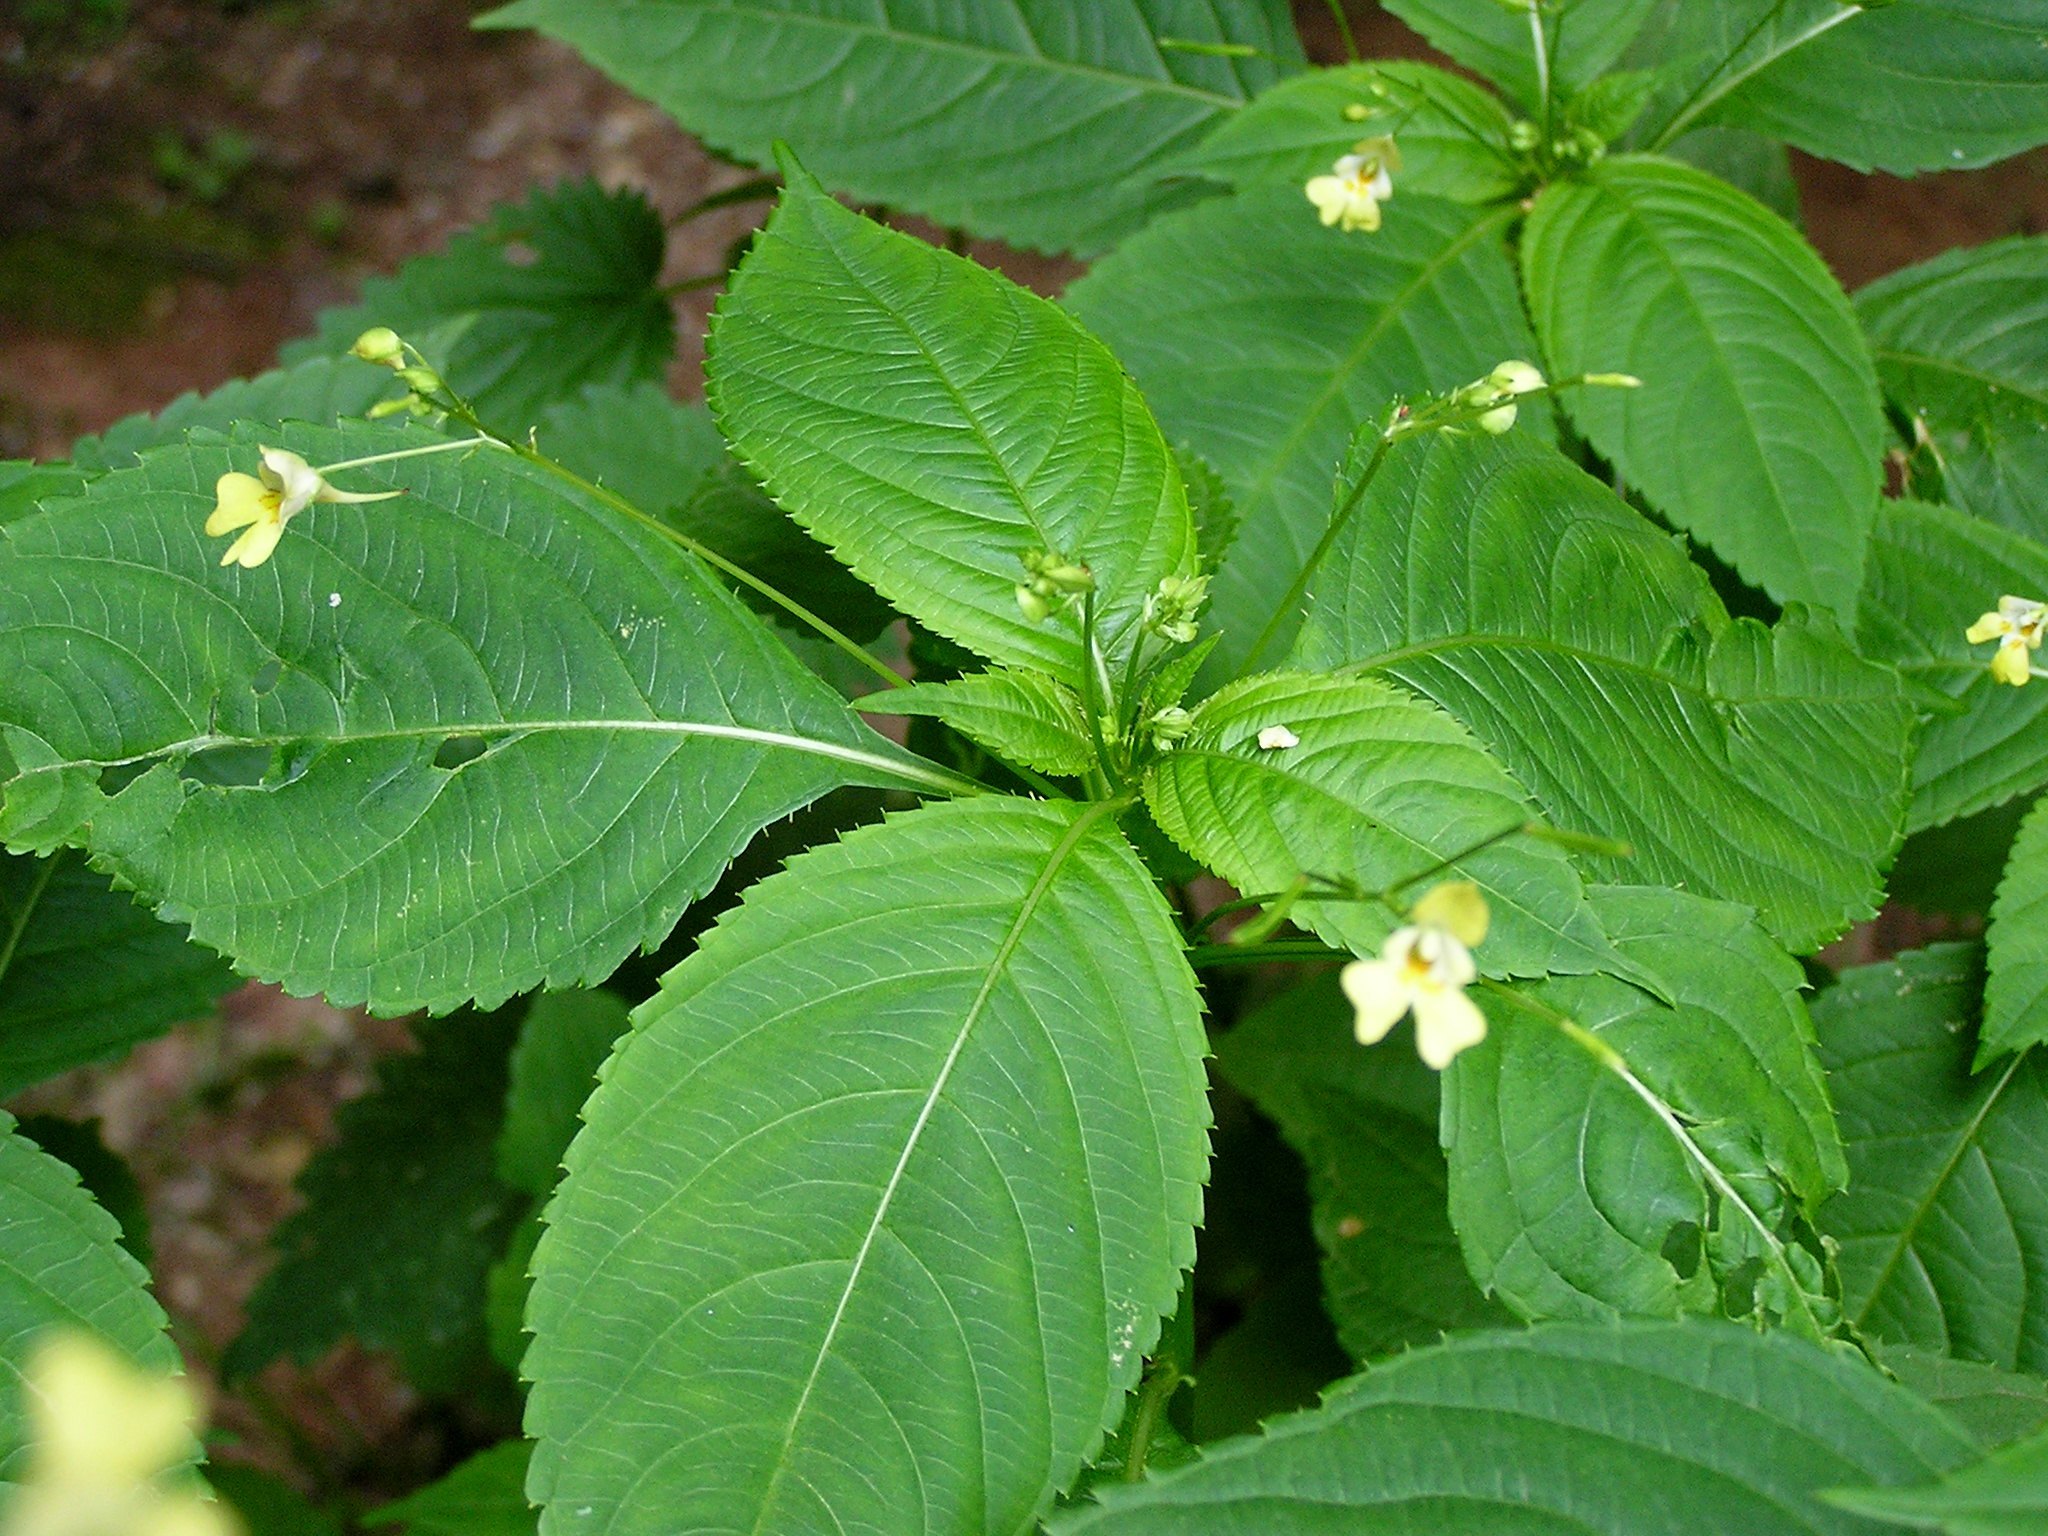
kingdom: Plantae
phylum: Tracheophyta
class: Magnoliopsida
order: Ericales
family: Balsaminaceae
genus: Impatiens
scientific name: Impatiens parviflora
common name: Small balsam
